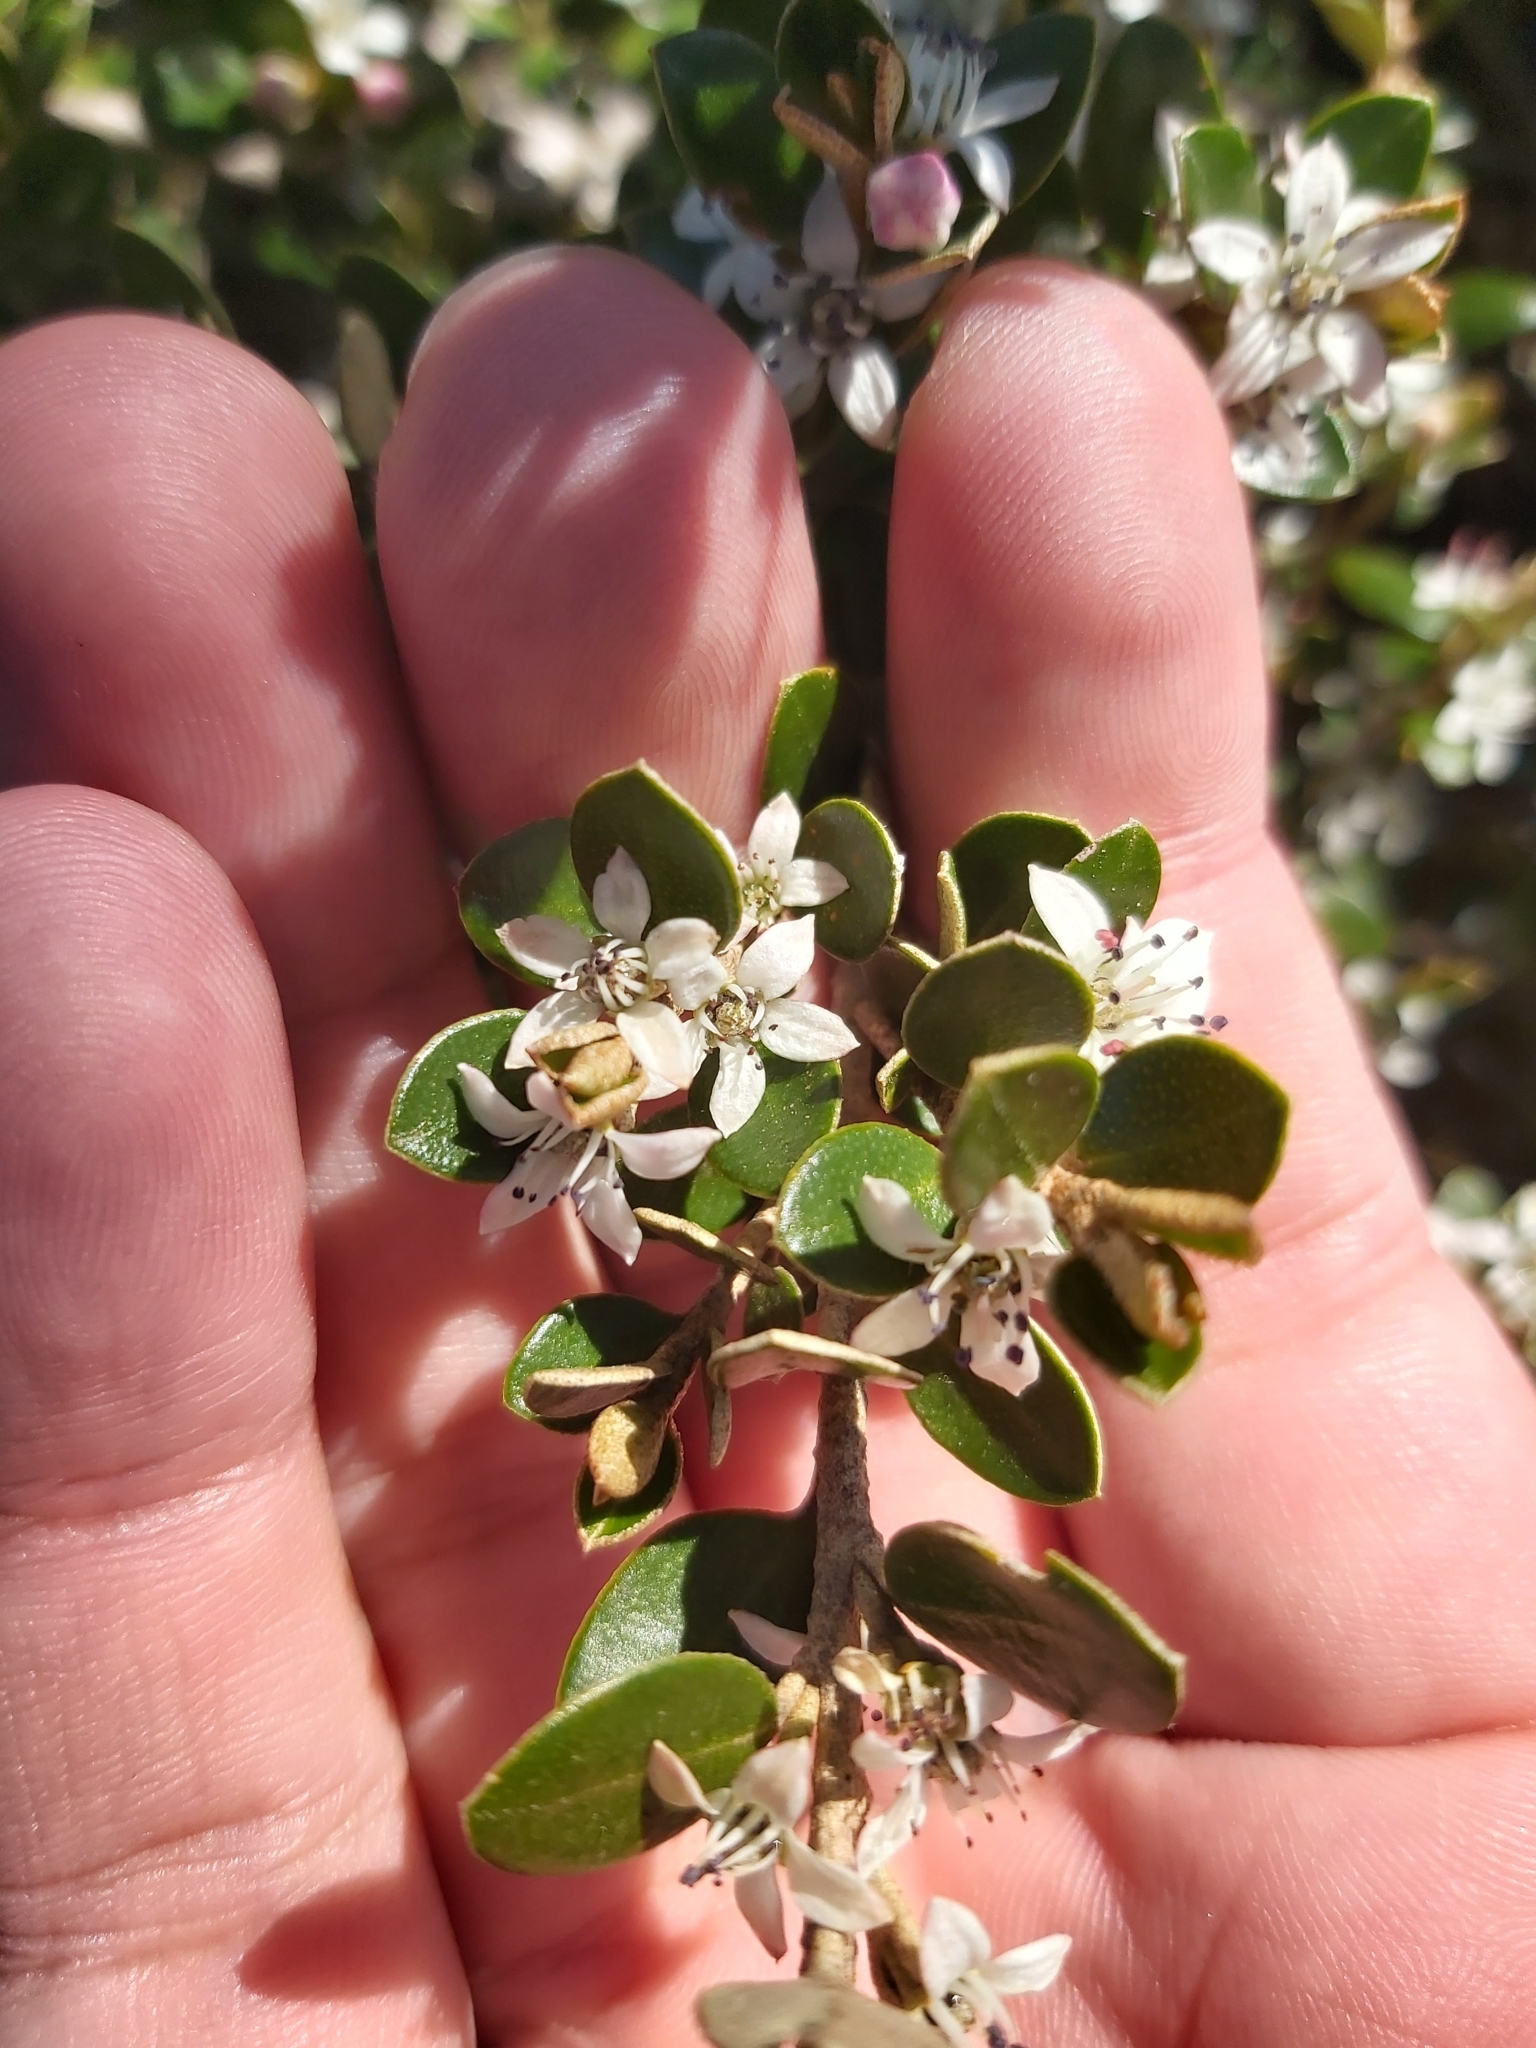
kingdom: Plantae
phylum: Tracheophyta
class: Magnoliopsida
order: Sapindales
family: Rutaceae
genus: Nematolepis
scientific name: Nematolepis ovatifolia
